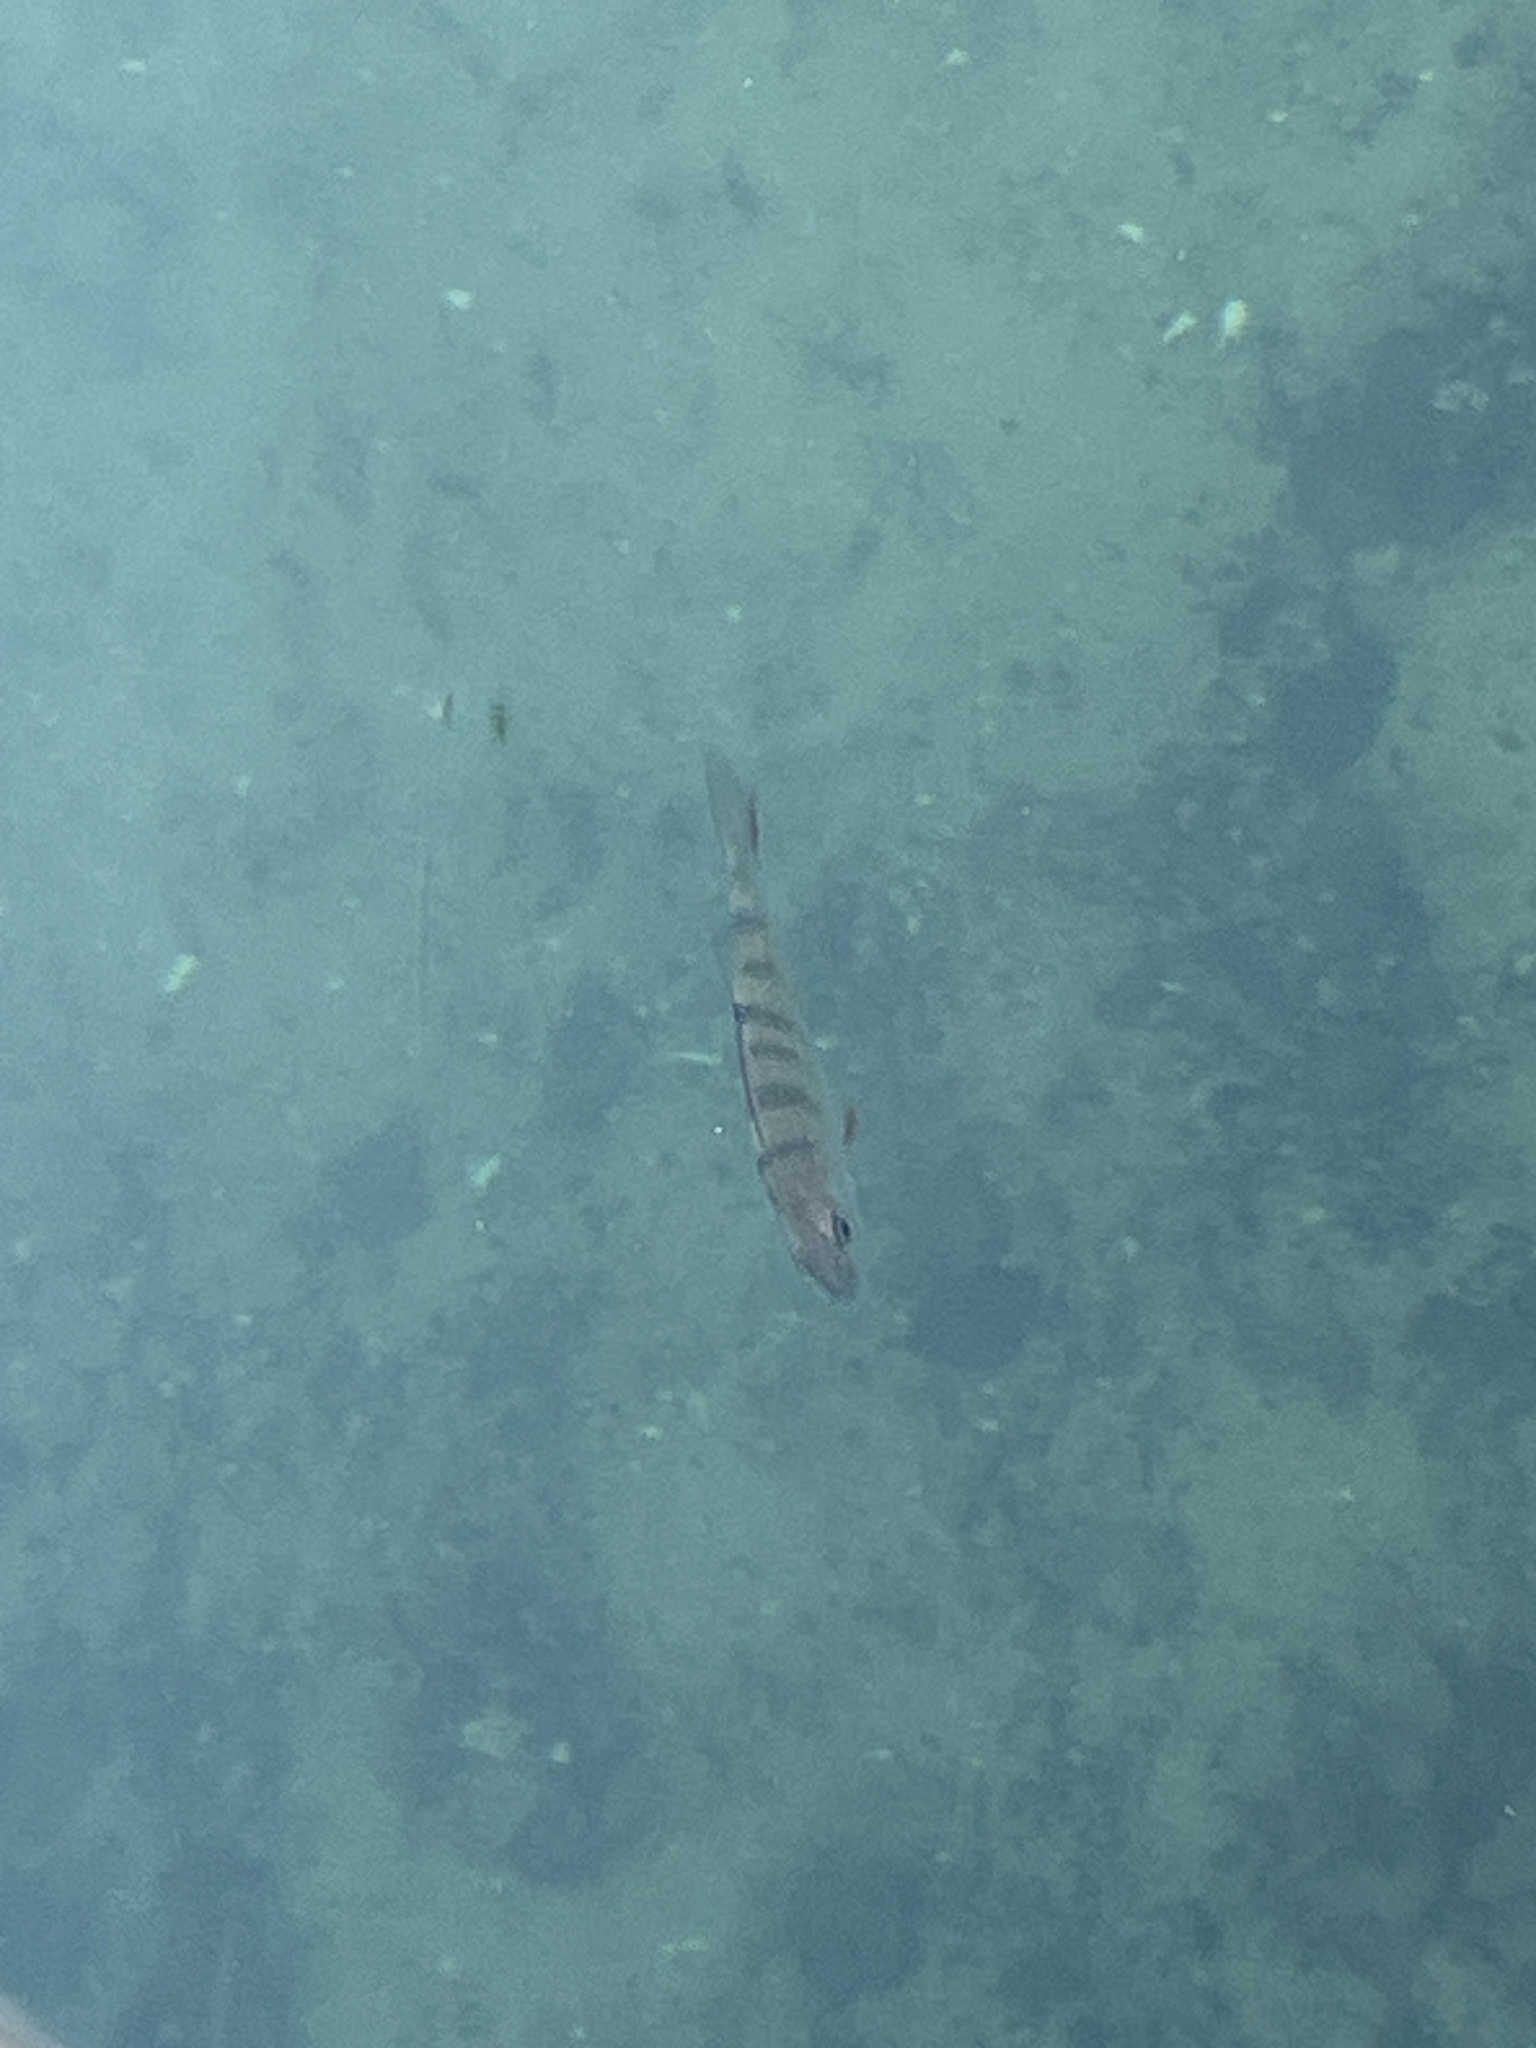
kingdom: Animalia
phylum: Chordata
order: Perciformes
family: Percidae
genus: Perca
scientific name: Perca fluviatilis
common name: Perch
